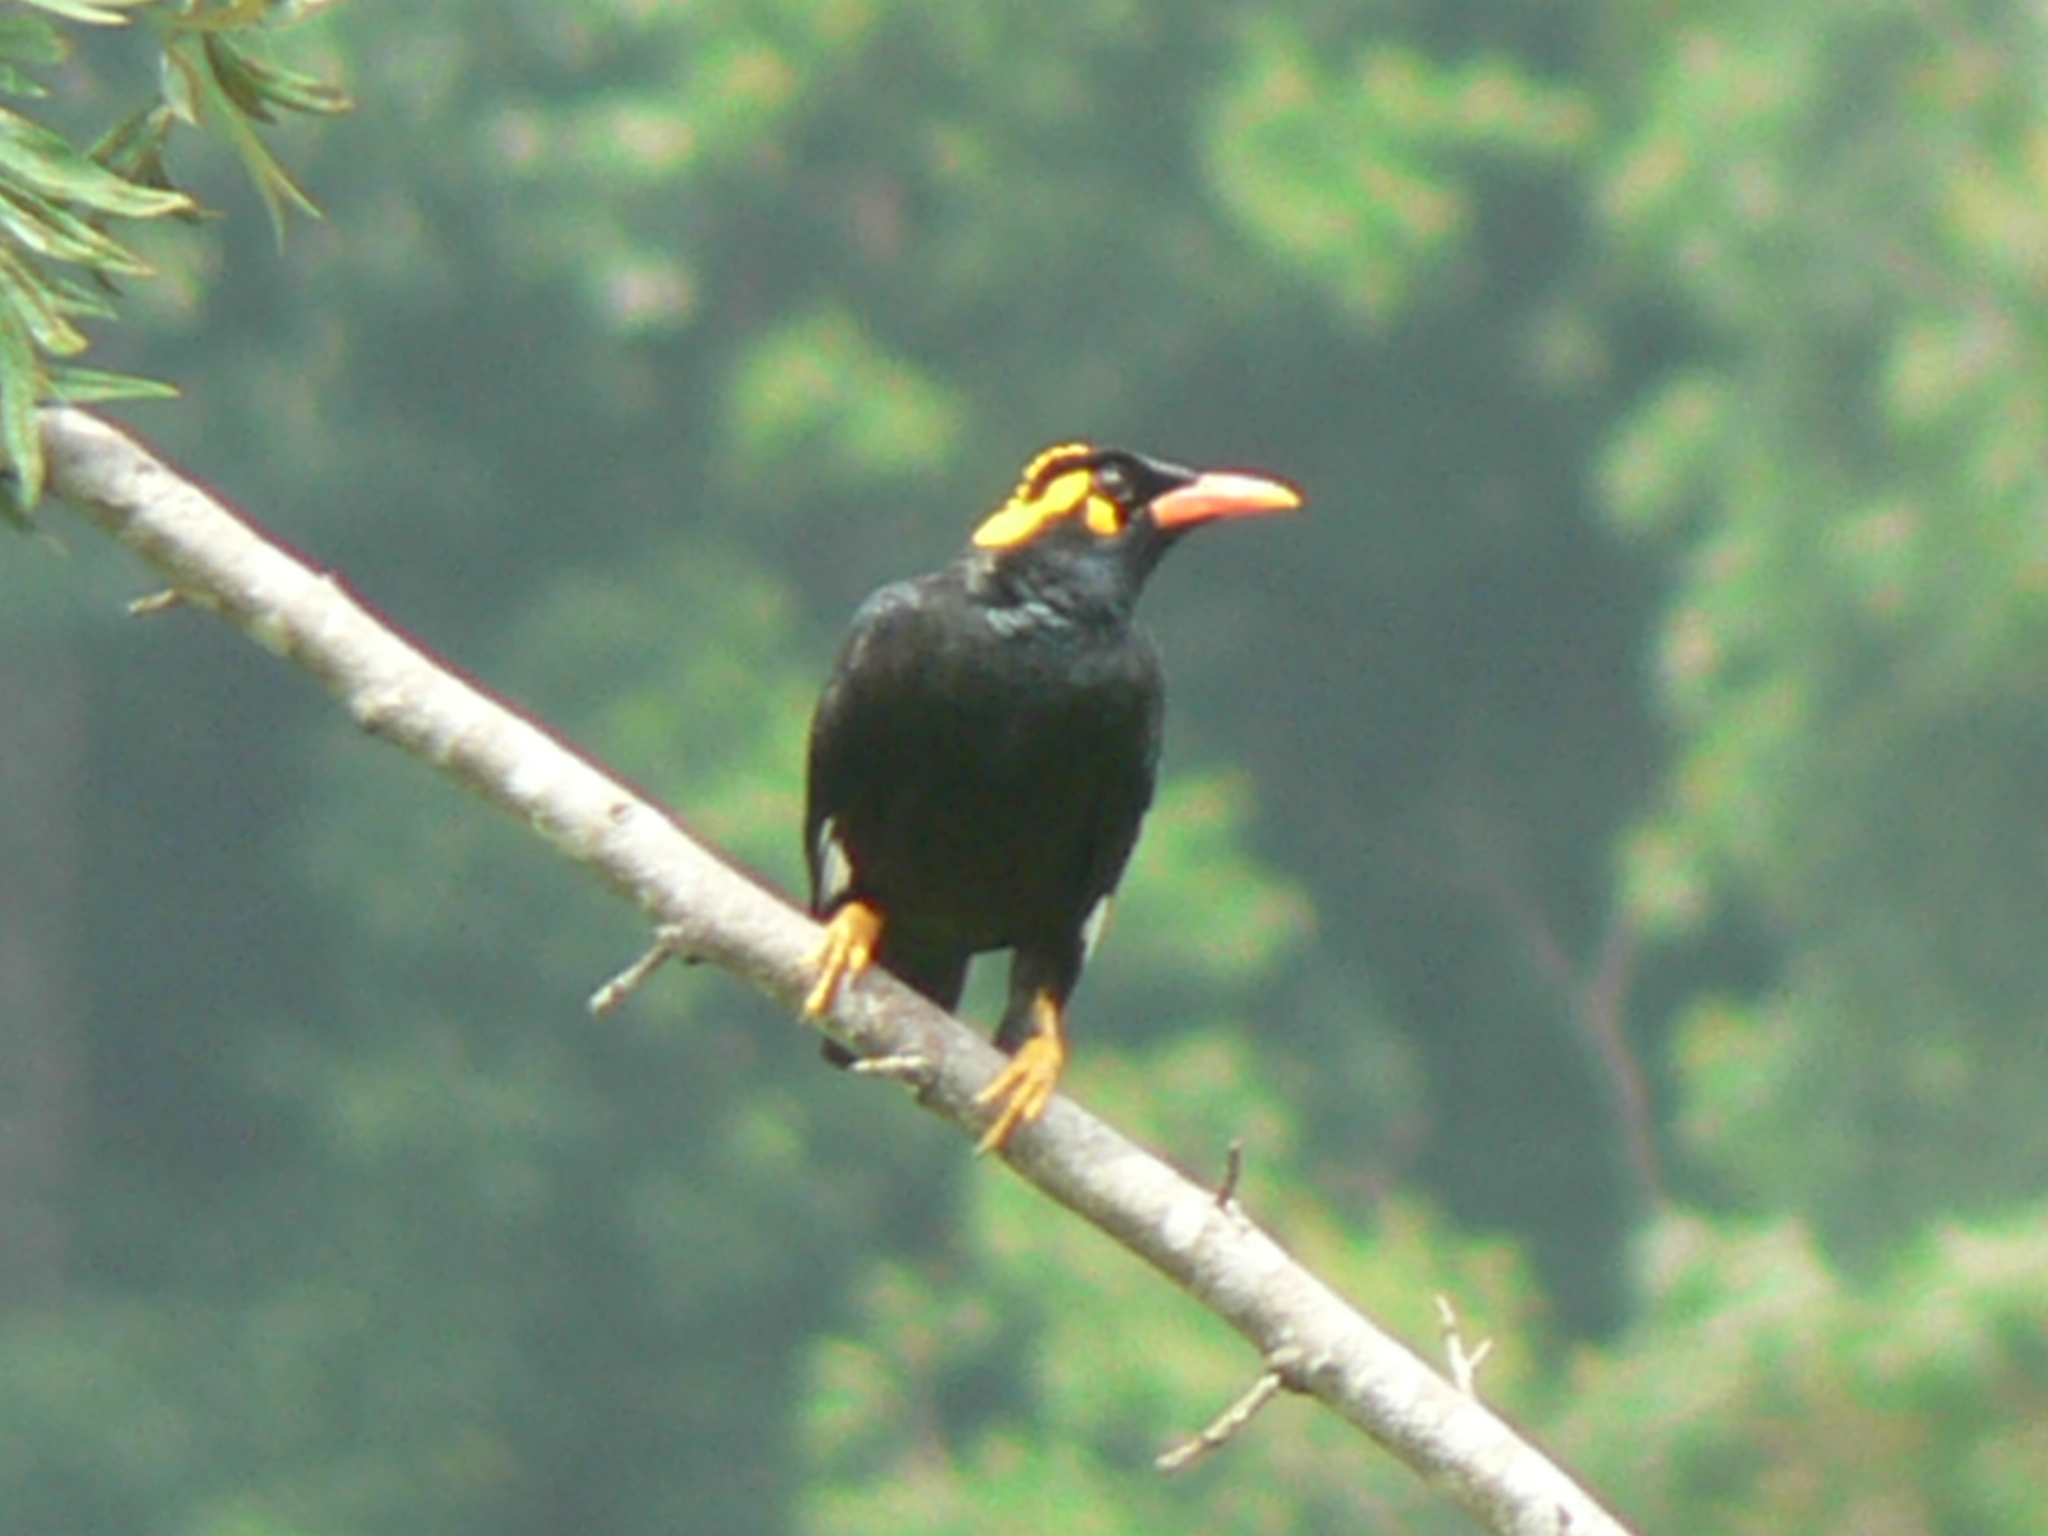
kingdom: Animalia
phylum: Chordata
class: Aves
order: Passeriformes
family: Sturnidae
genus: Gracula
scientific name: Gracula indica
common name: Southern hill myna
